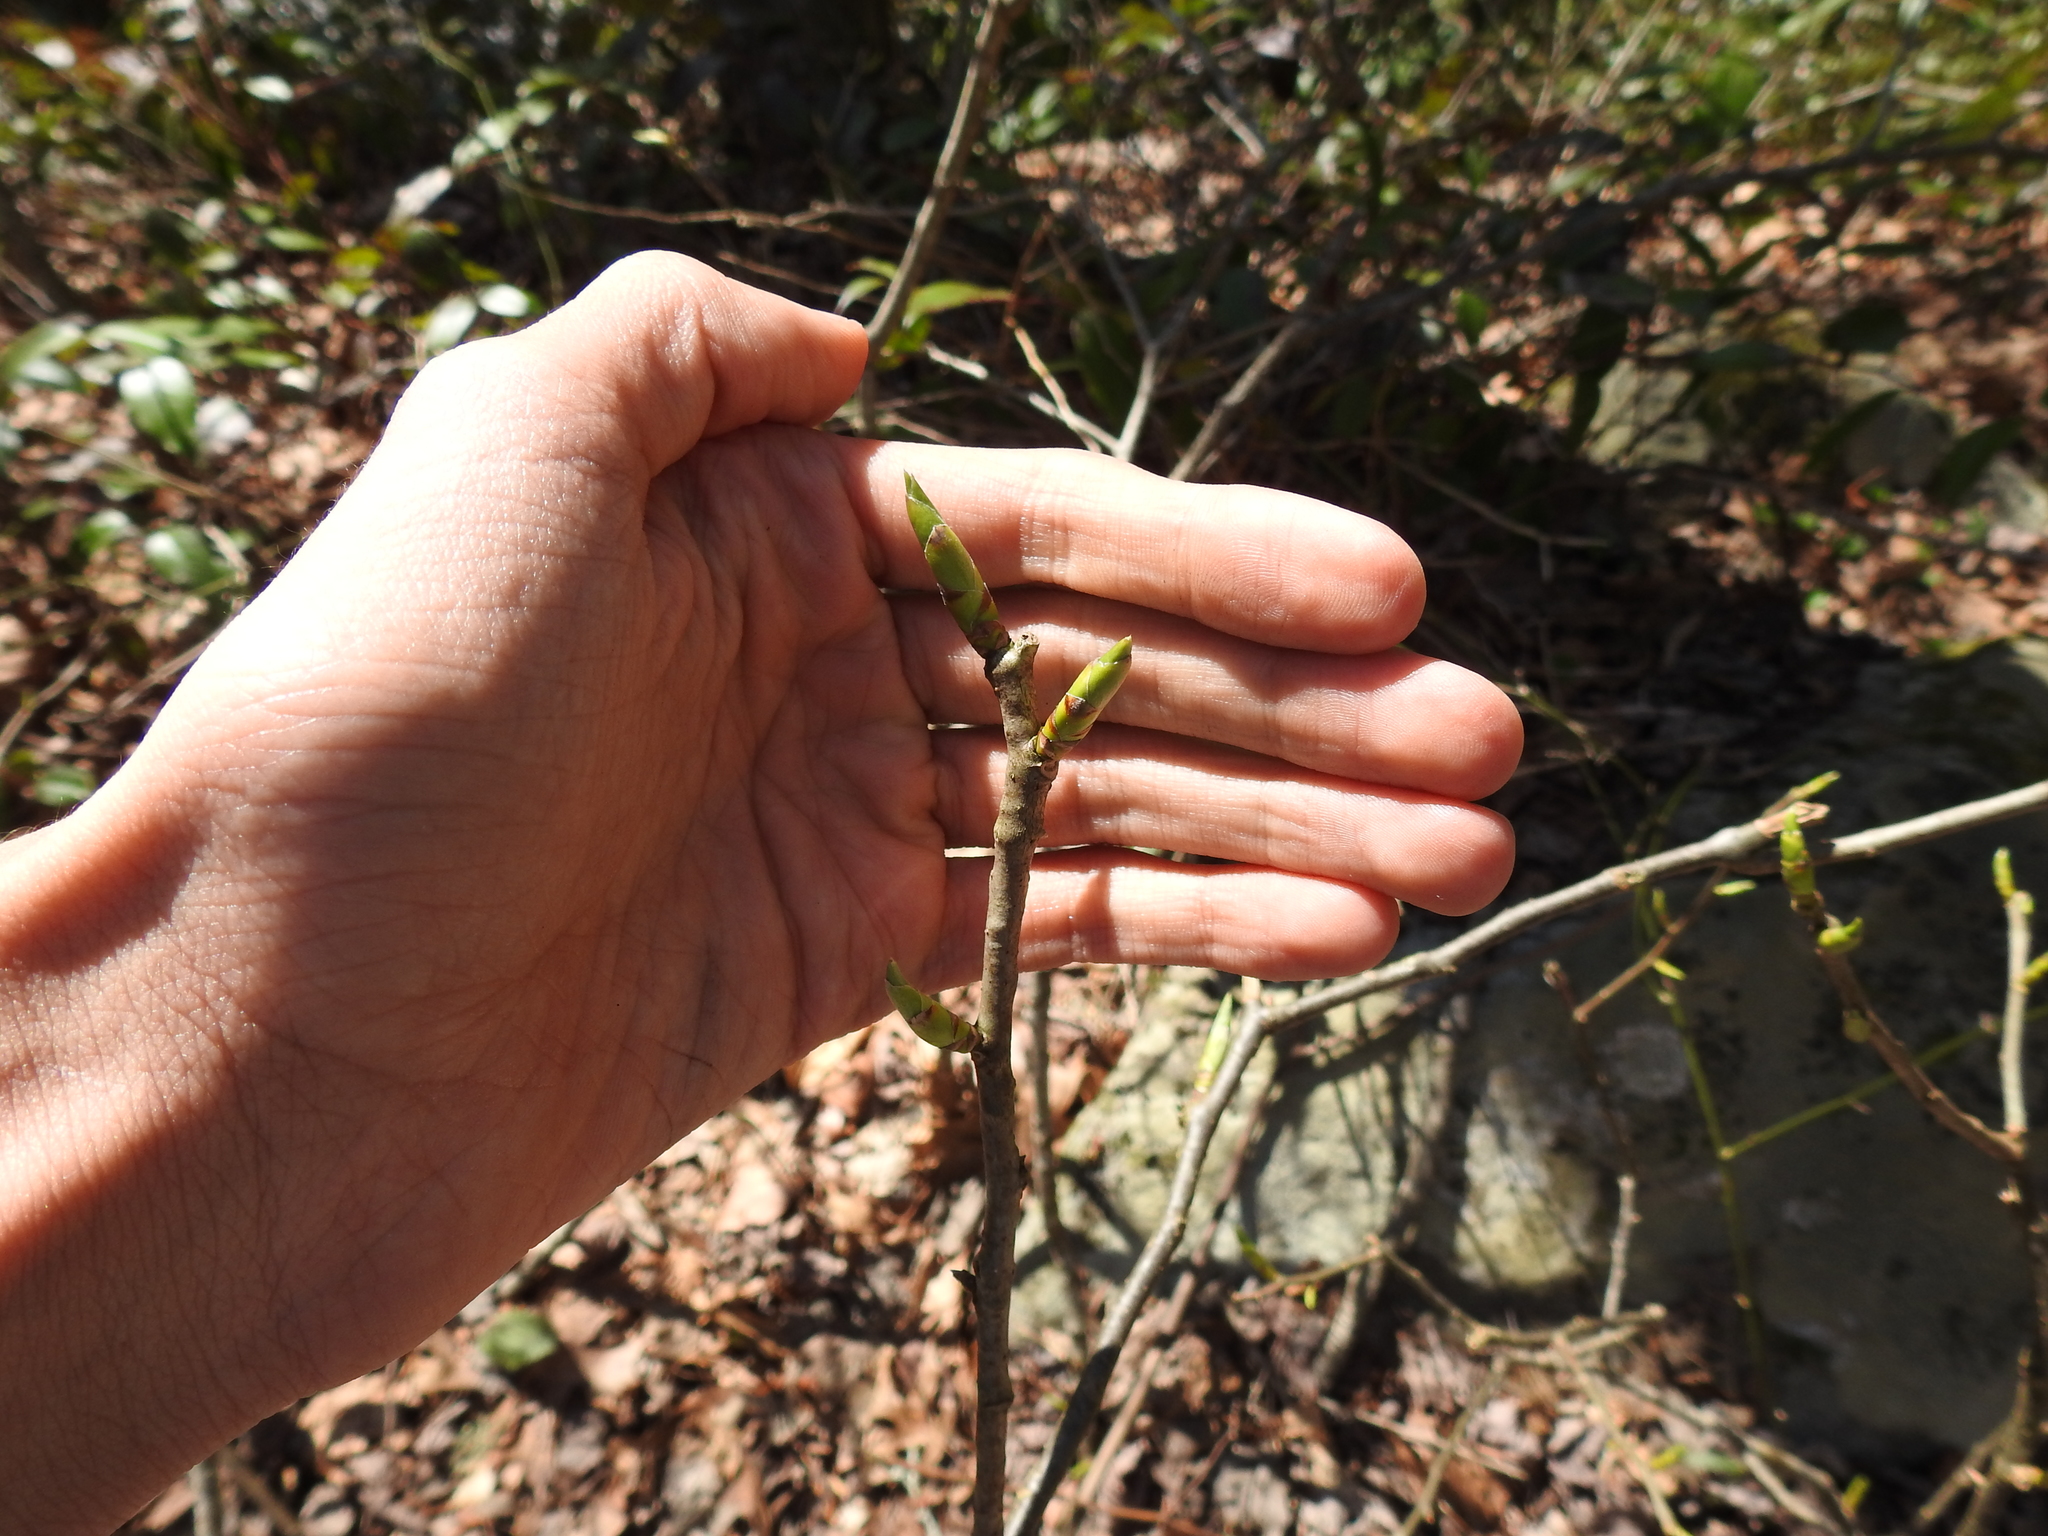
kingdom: Plantae
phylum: Tracheophyta
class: Magnoliopsida
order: Santalales
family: Cervantesiaceae
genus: Pyrularia
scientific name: Pyrularia pubera
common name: Oilnut
